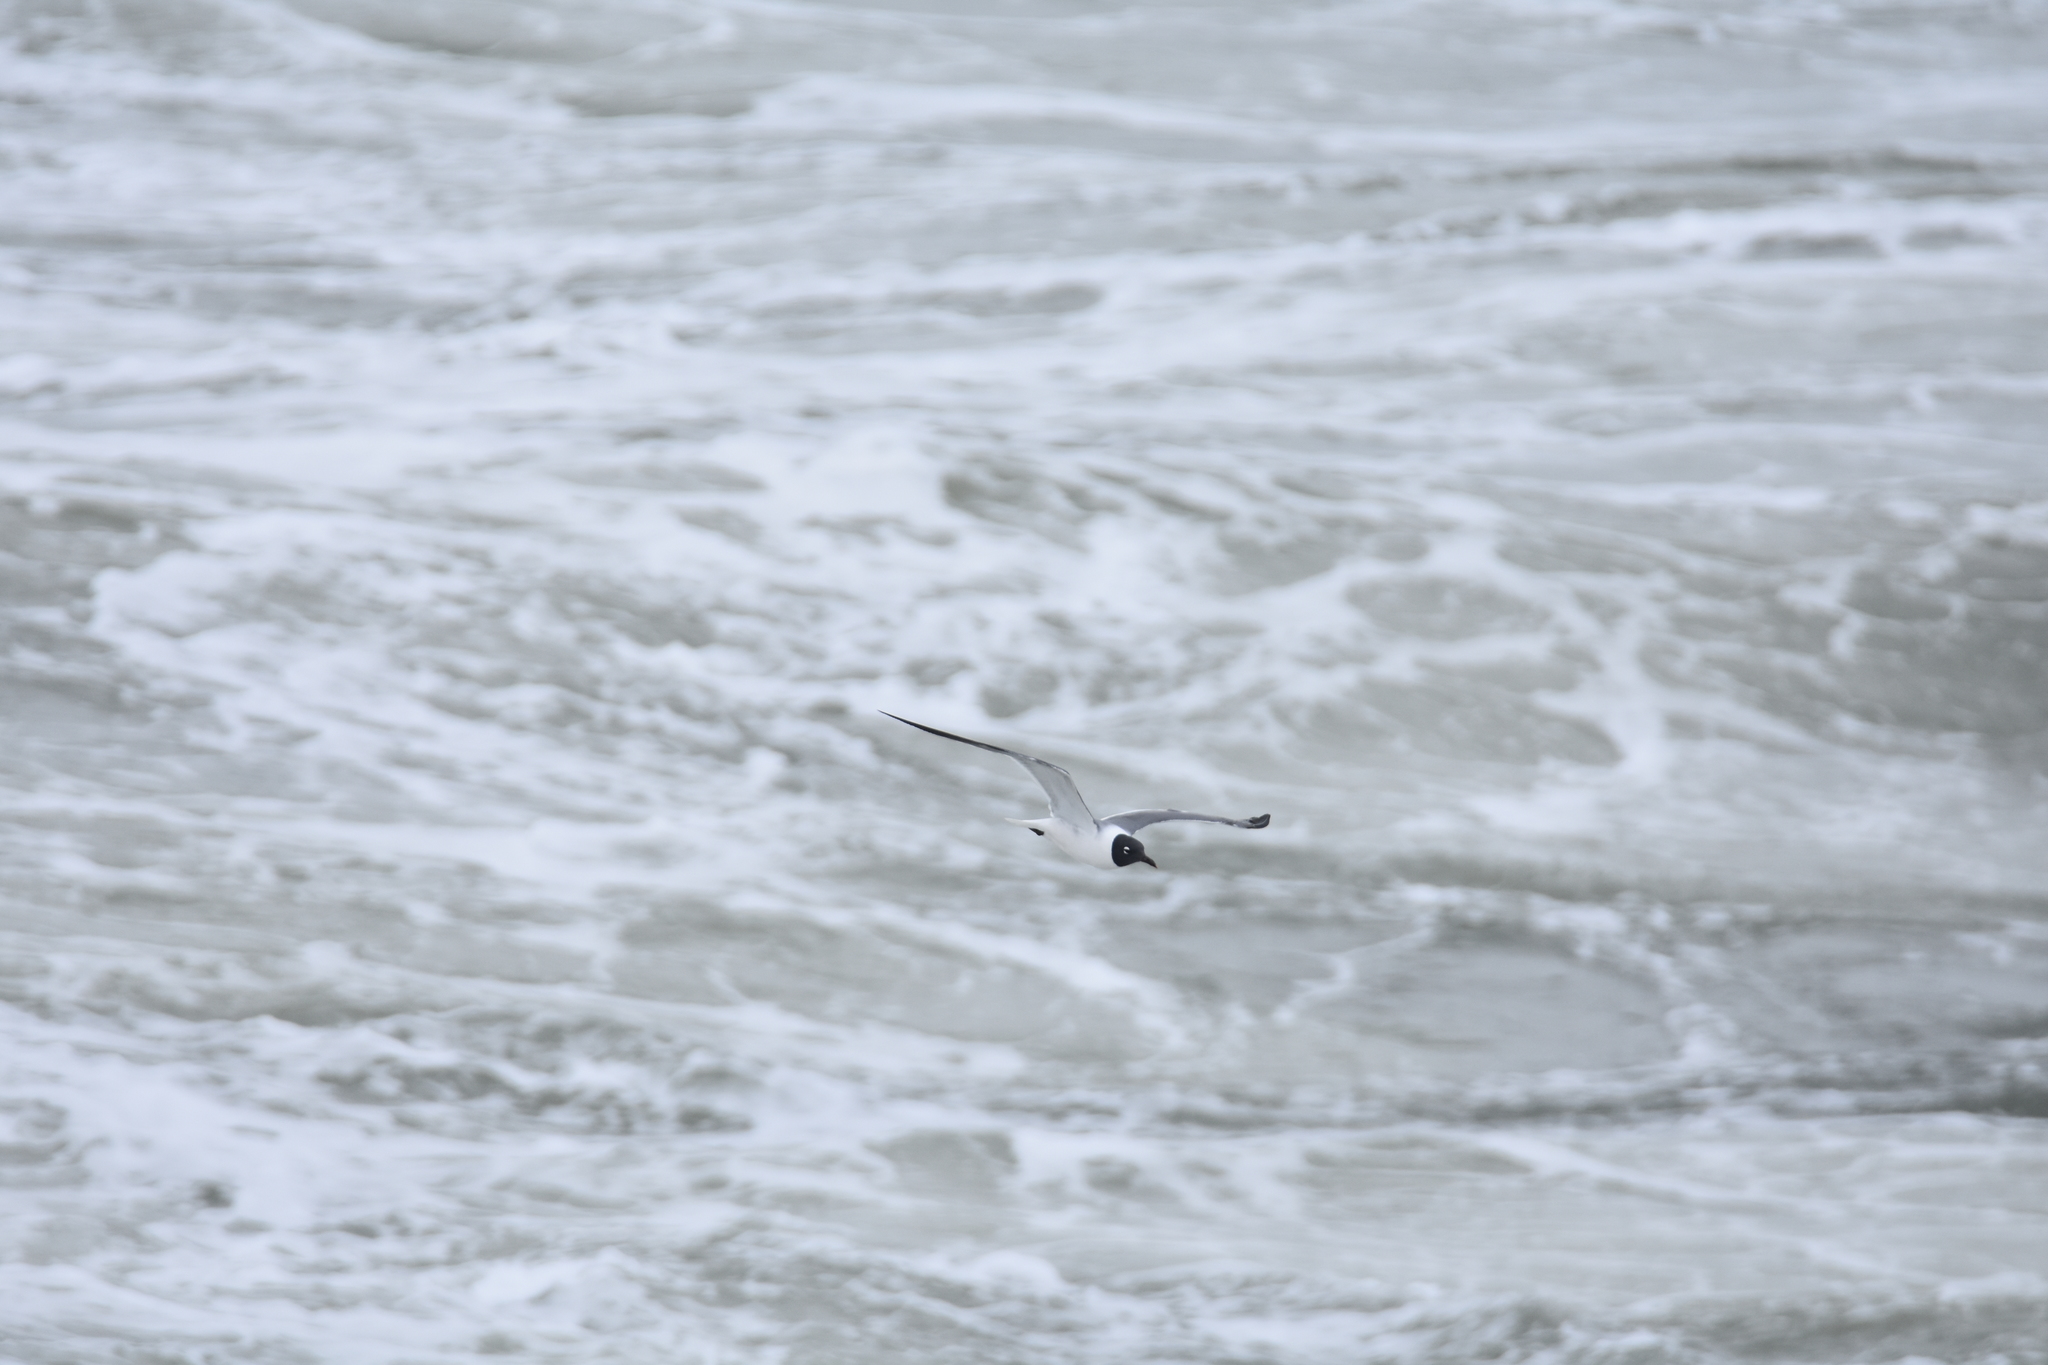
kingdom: Animalia
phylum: Chordata
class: Aves
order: Charadriiformes
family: Laridae
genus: Leucophaeus
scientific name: Leucophaeus atricilla
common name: Laughing gull
